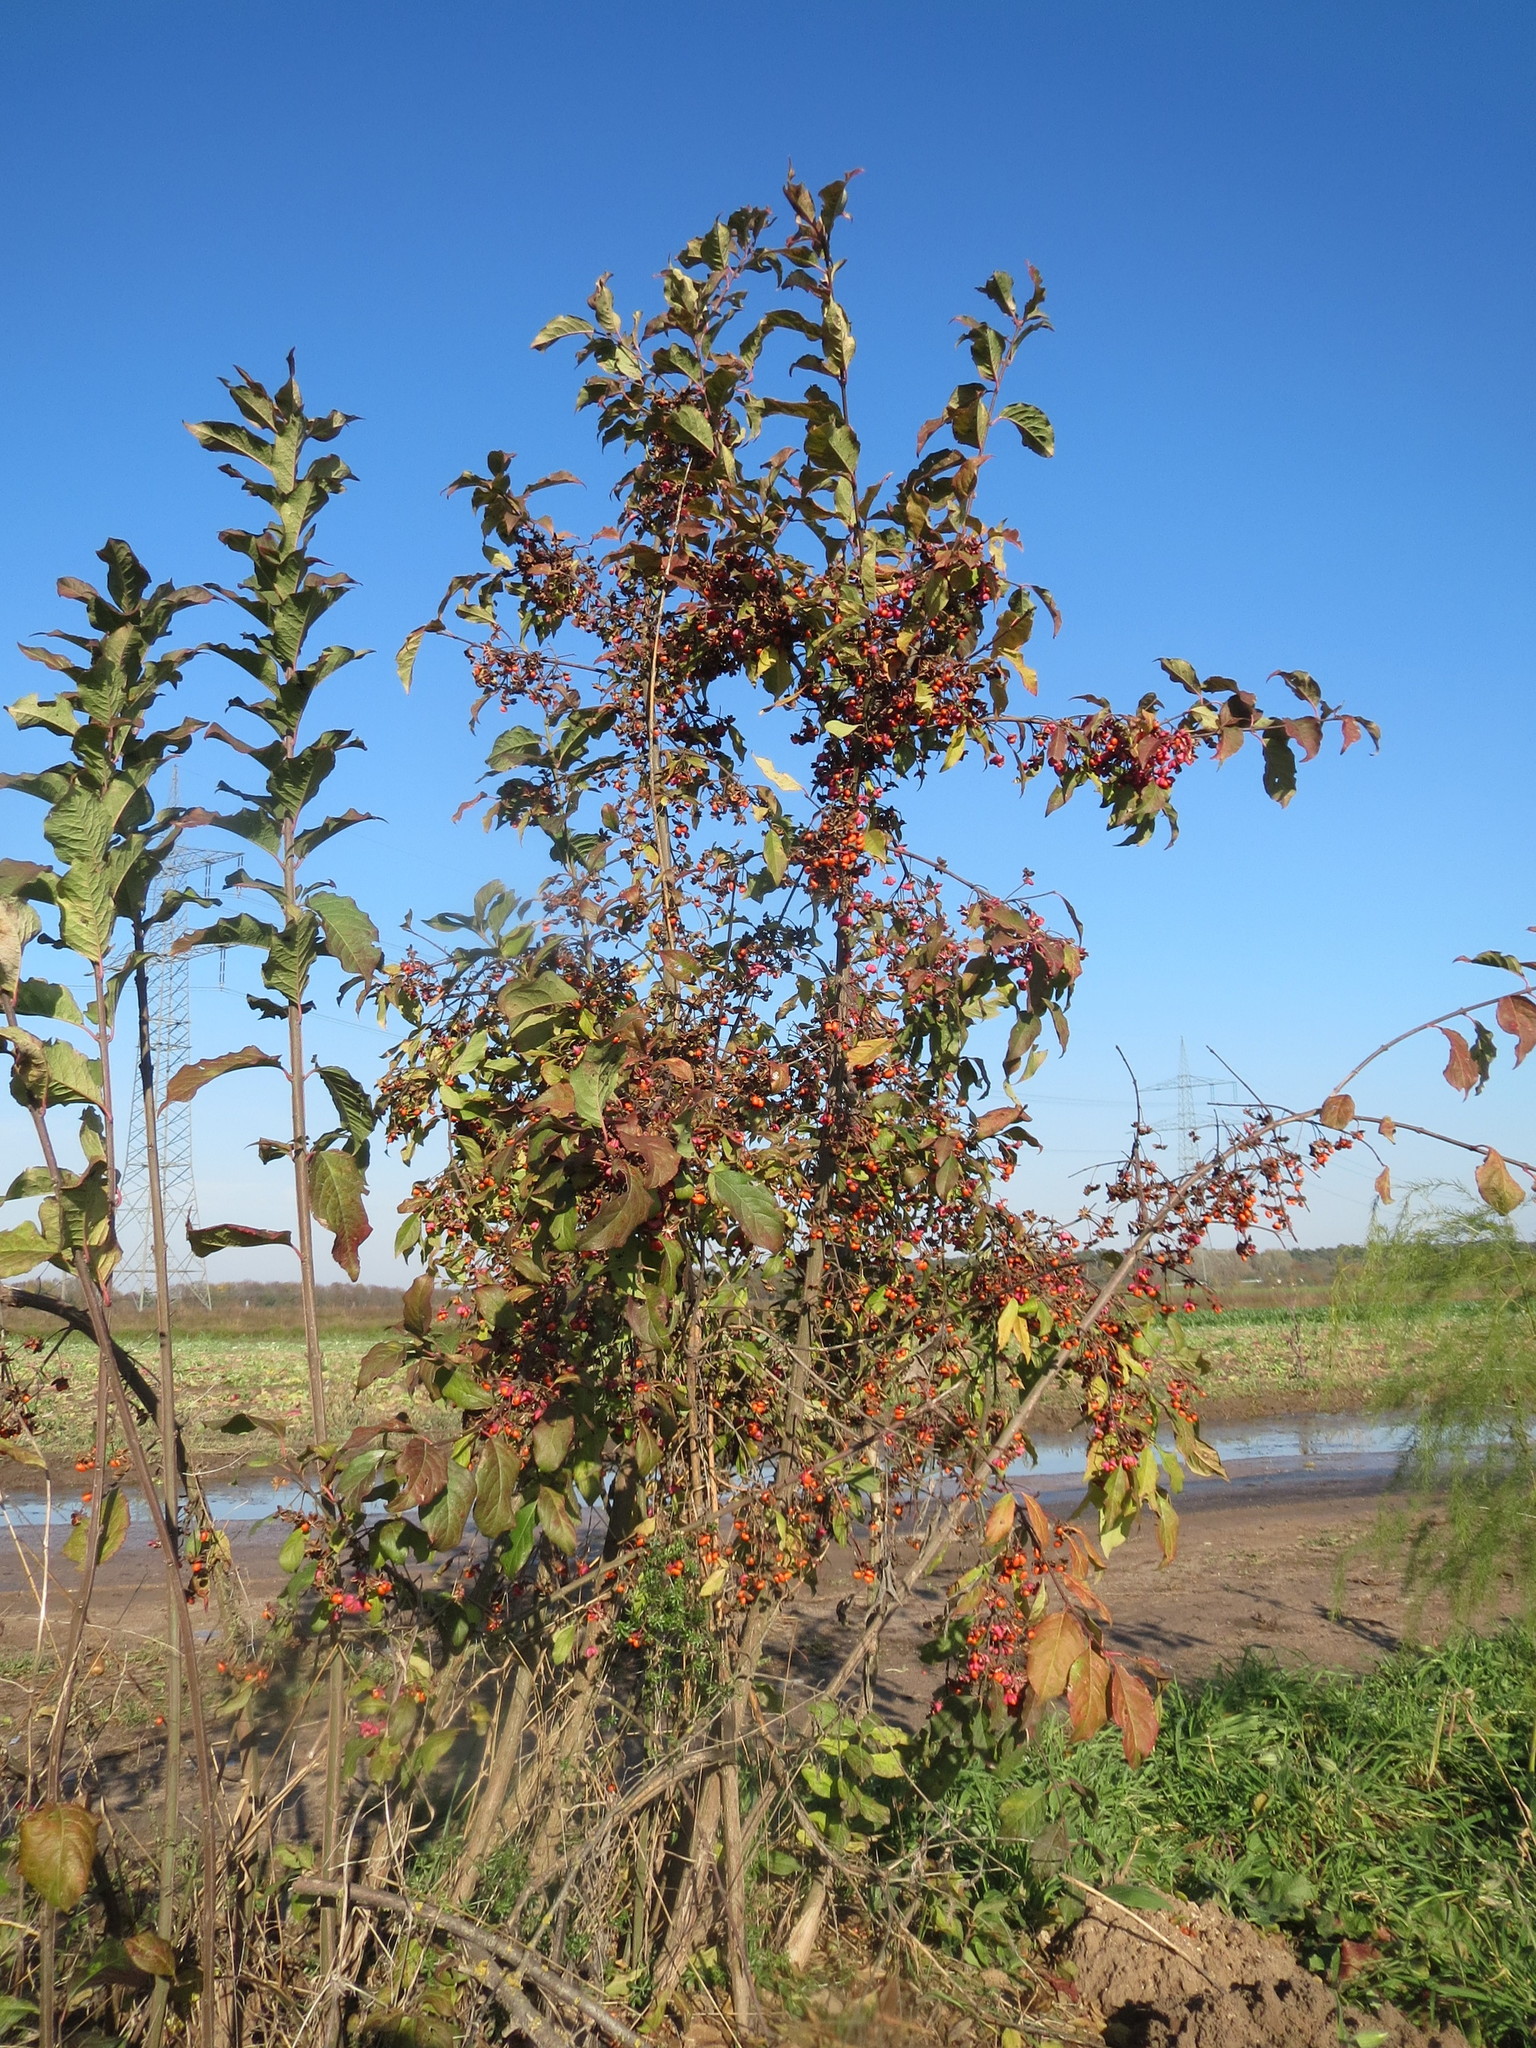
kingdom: Plantae
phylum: Tracheophyta
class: Magnoliopsida
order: Celastrales
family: Celastraceae
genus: Euonymus
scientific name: Euonymus europaeus
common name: Spindle
